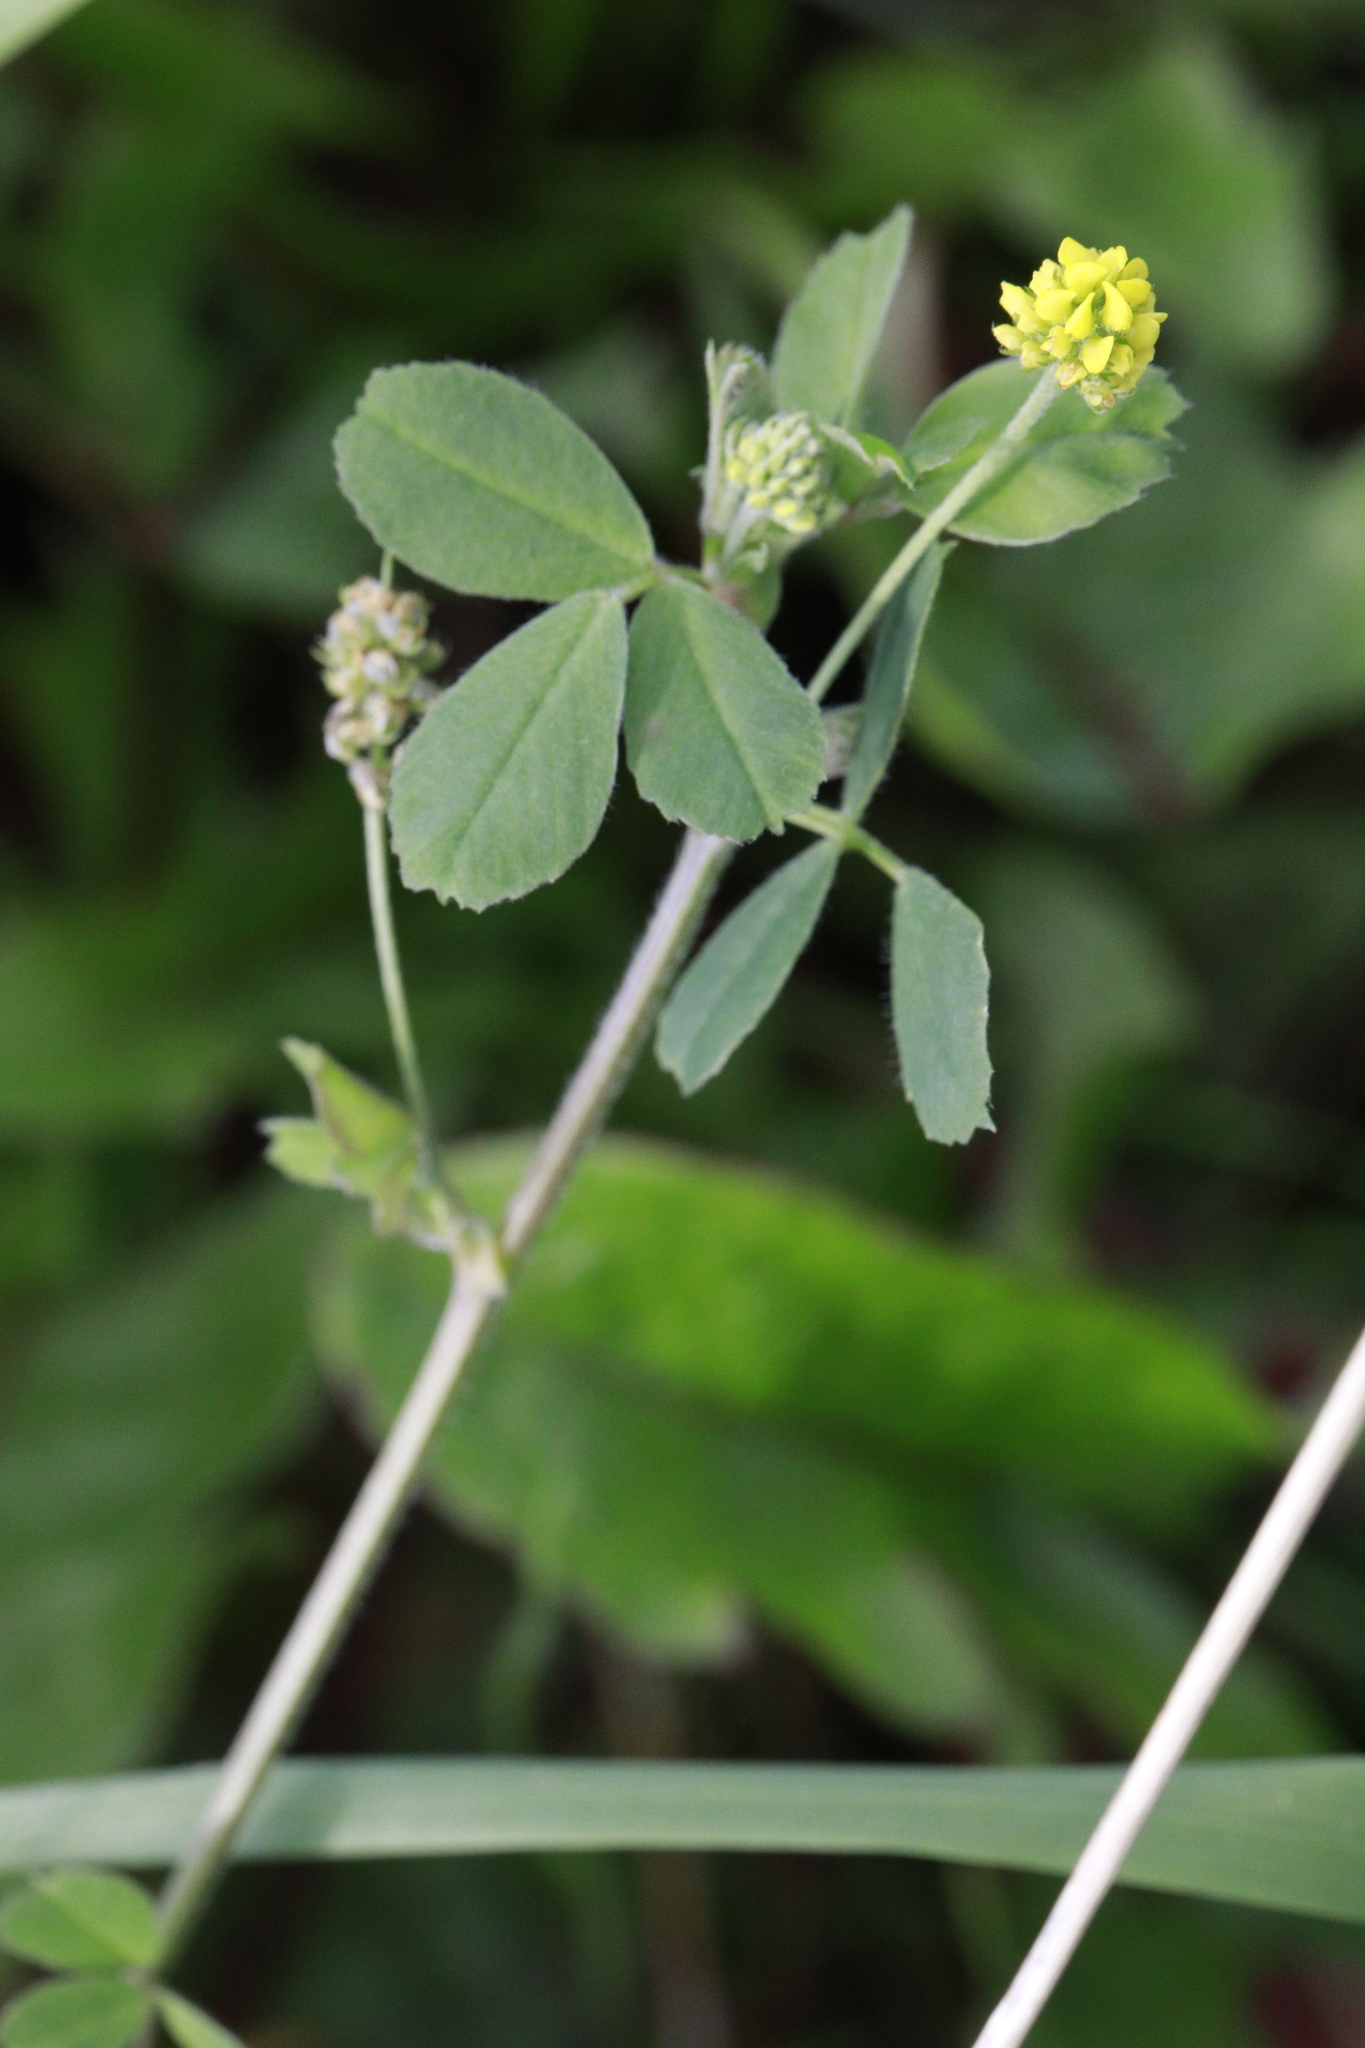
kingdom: Plantae
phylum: Tracheophyta
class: Magnoliopsida
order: Fabales
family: Fabaceae
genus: Medicago
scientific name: Medicago lupulina
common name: Black medick
